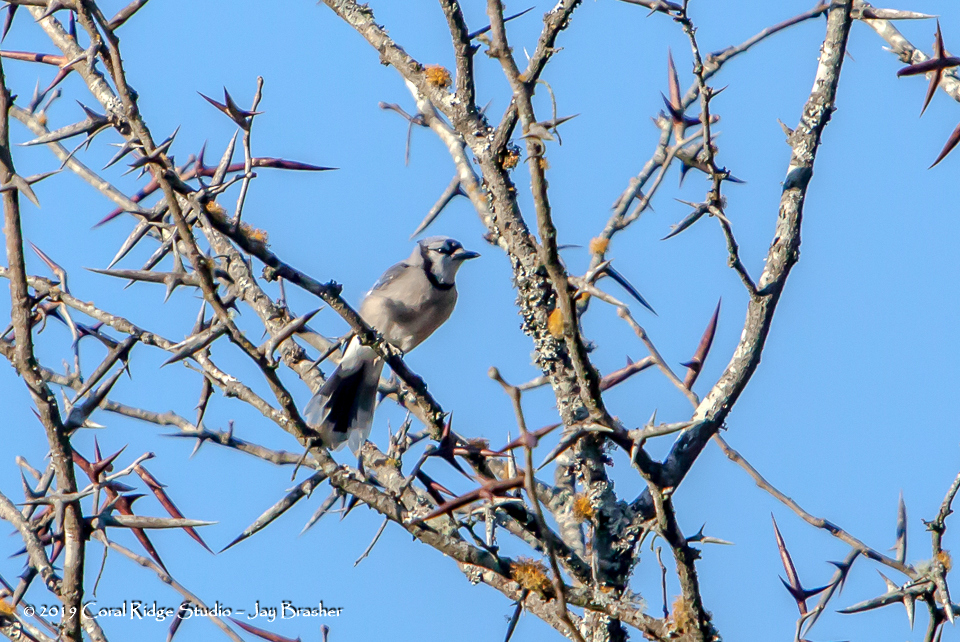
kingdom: Animalia
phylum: Chordata
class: Aves
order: Passeriformes
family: Corvidae
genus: Cyanocitta
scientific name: Cyanocitta cristata
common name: Blue jay
